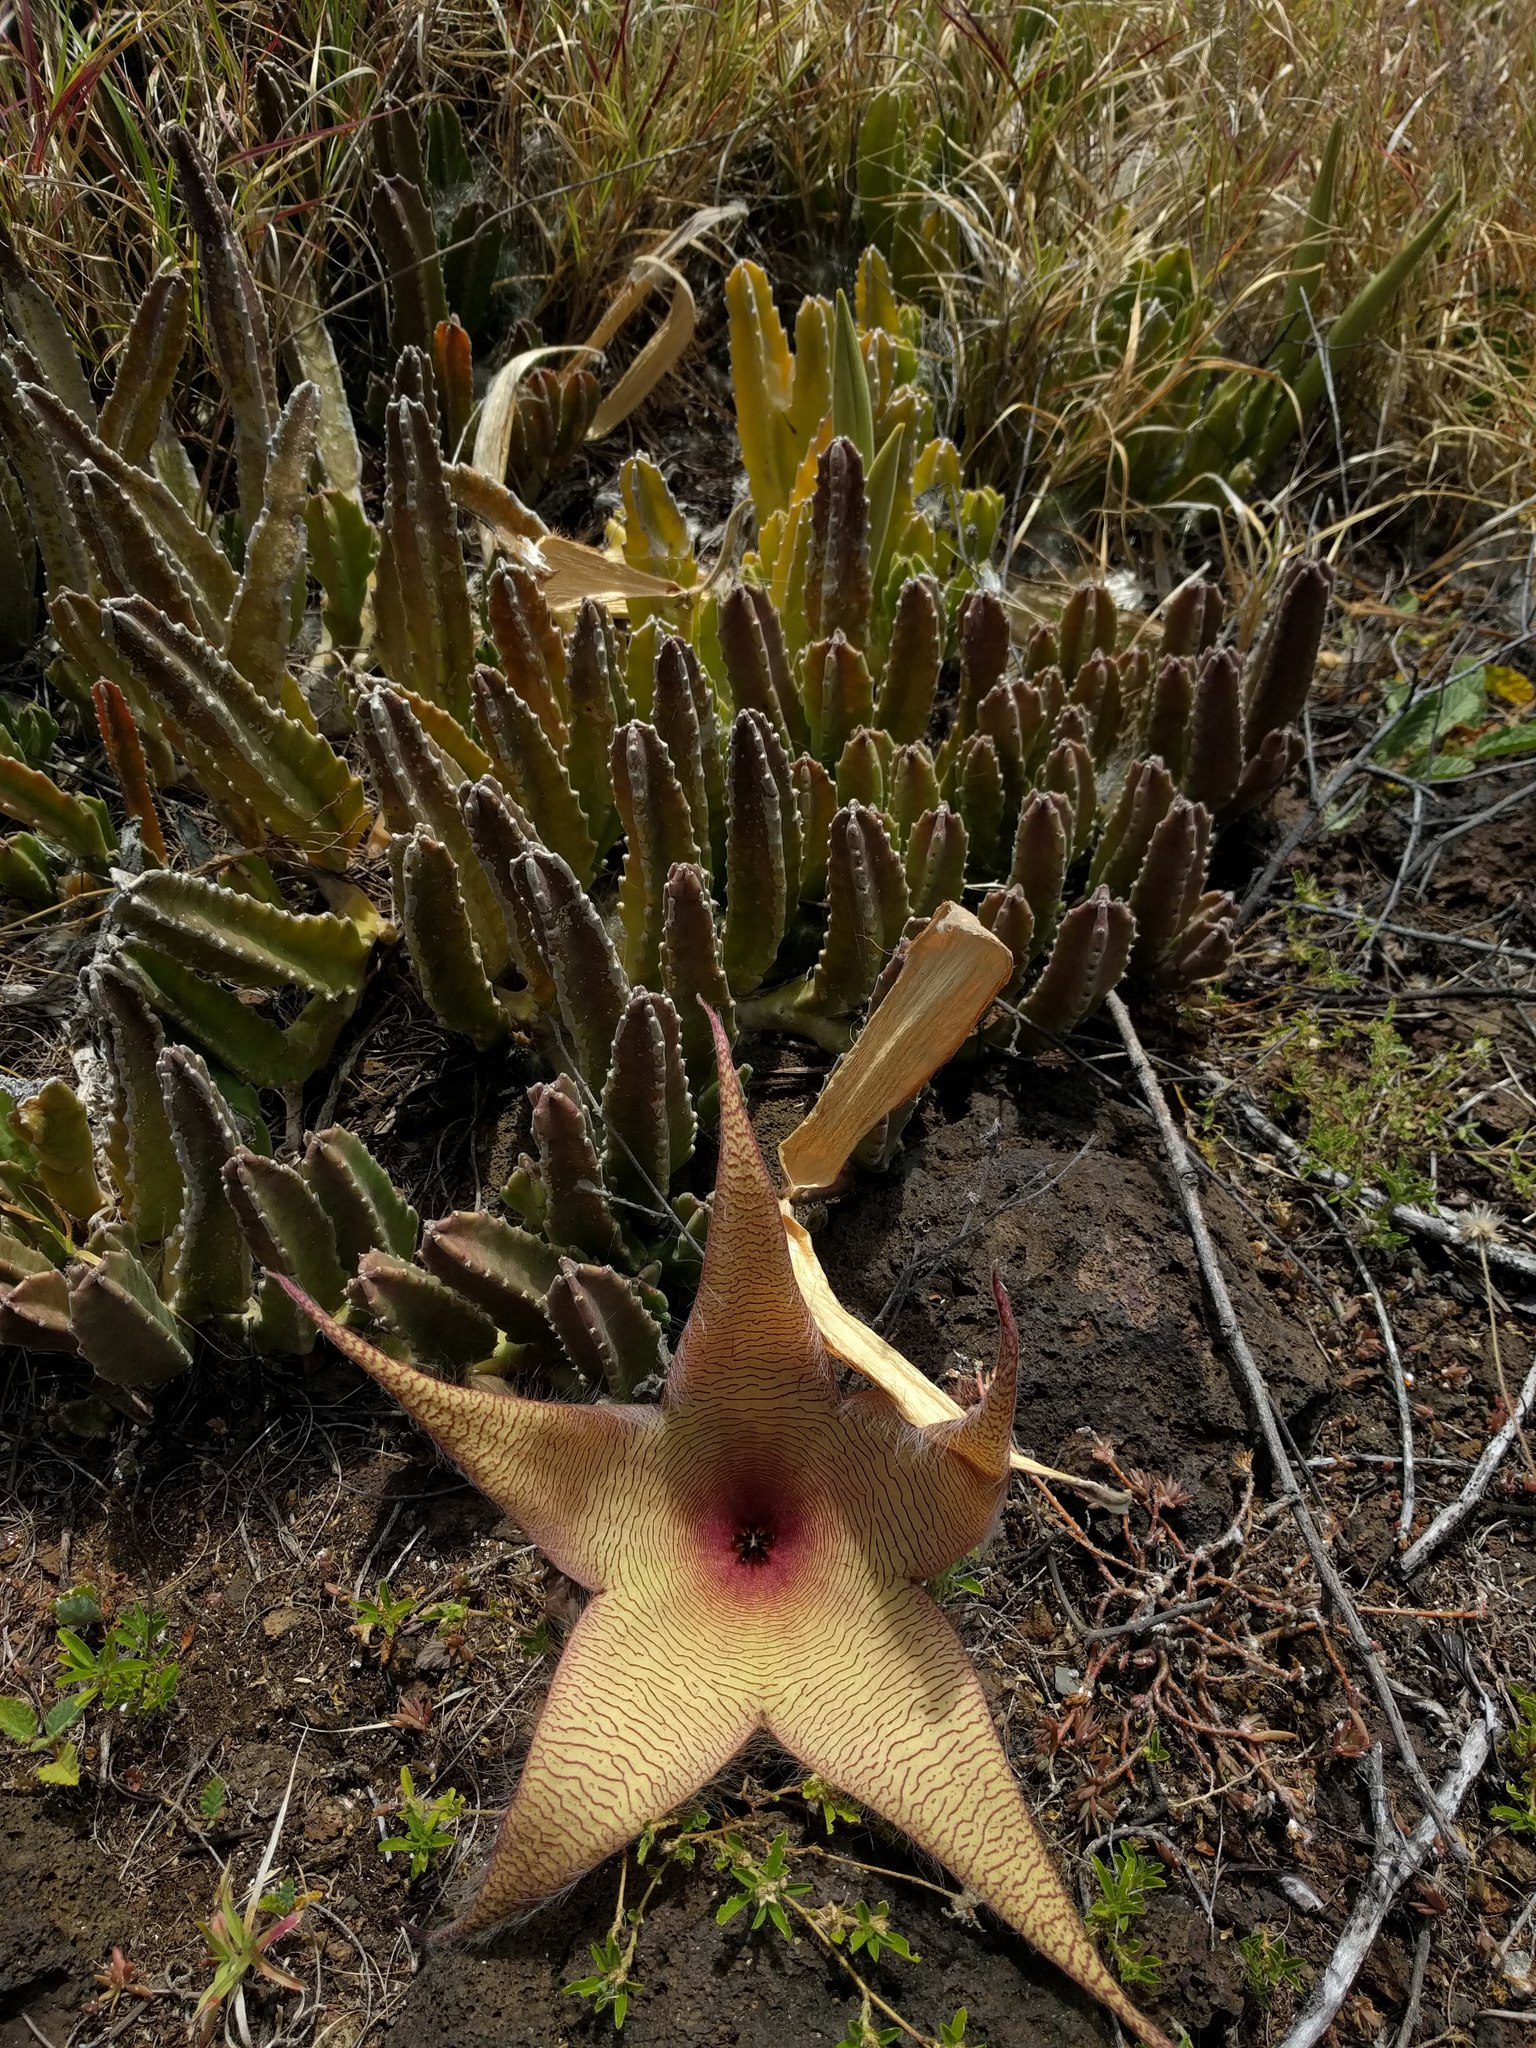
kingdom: Plantae
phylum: Tracheophyta
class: Magnoliopsida
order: Gentianales
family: Apocynaceae
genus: Ceropegia
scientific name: Ceropegia gigantea
